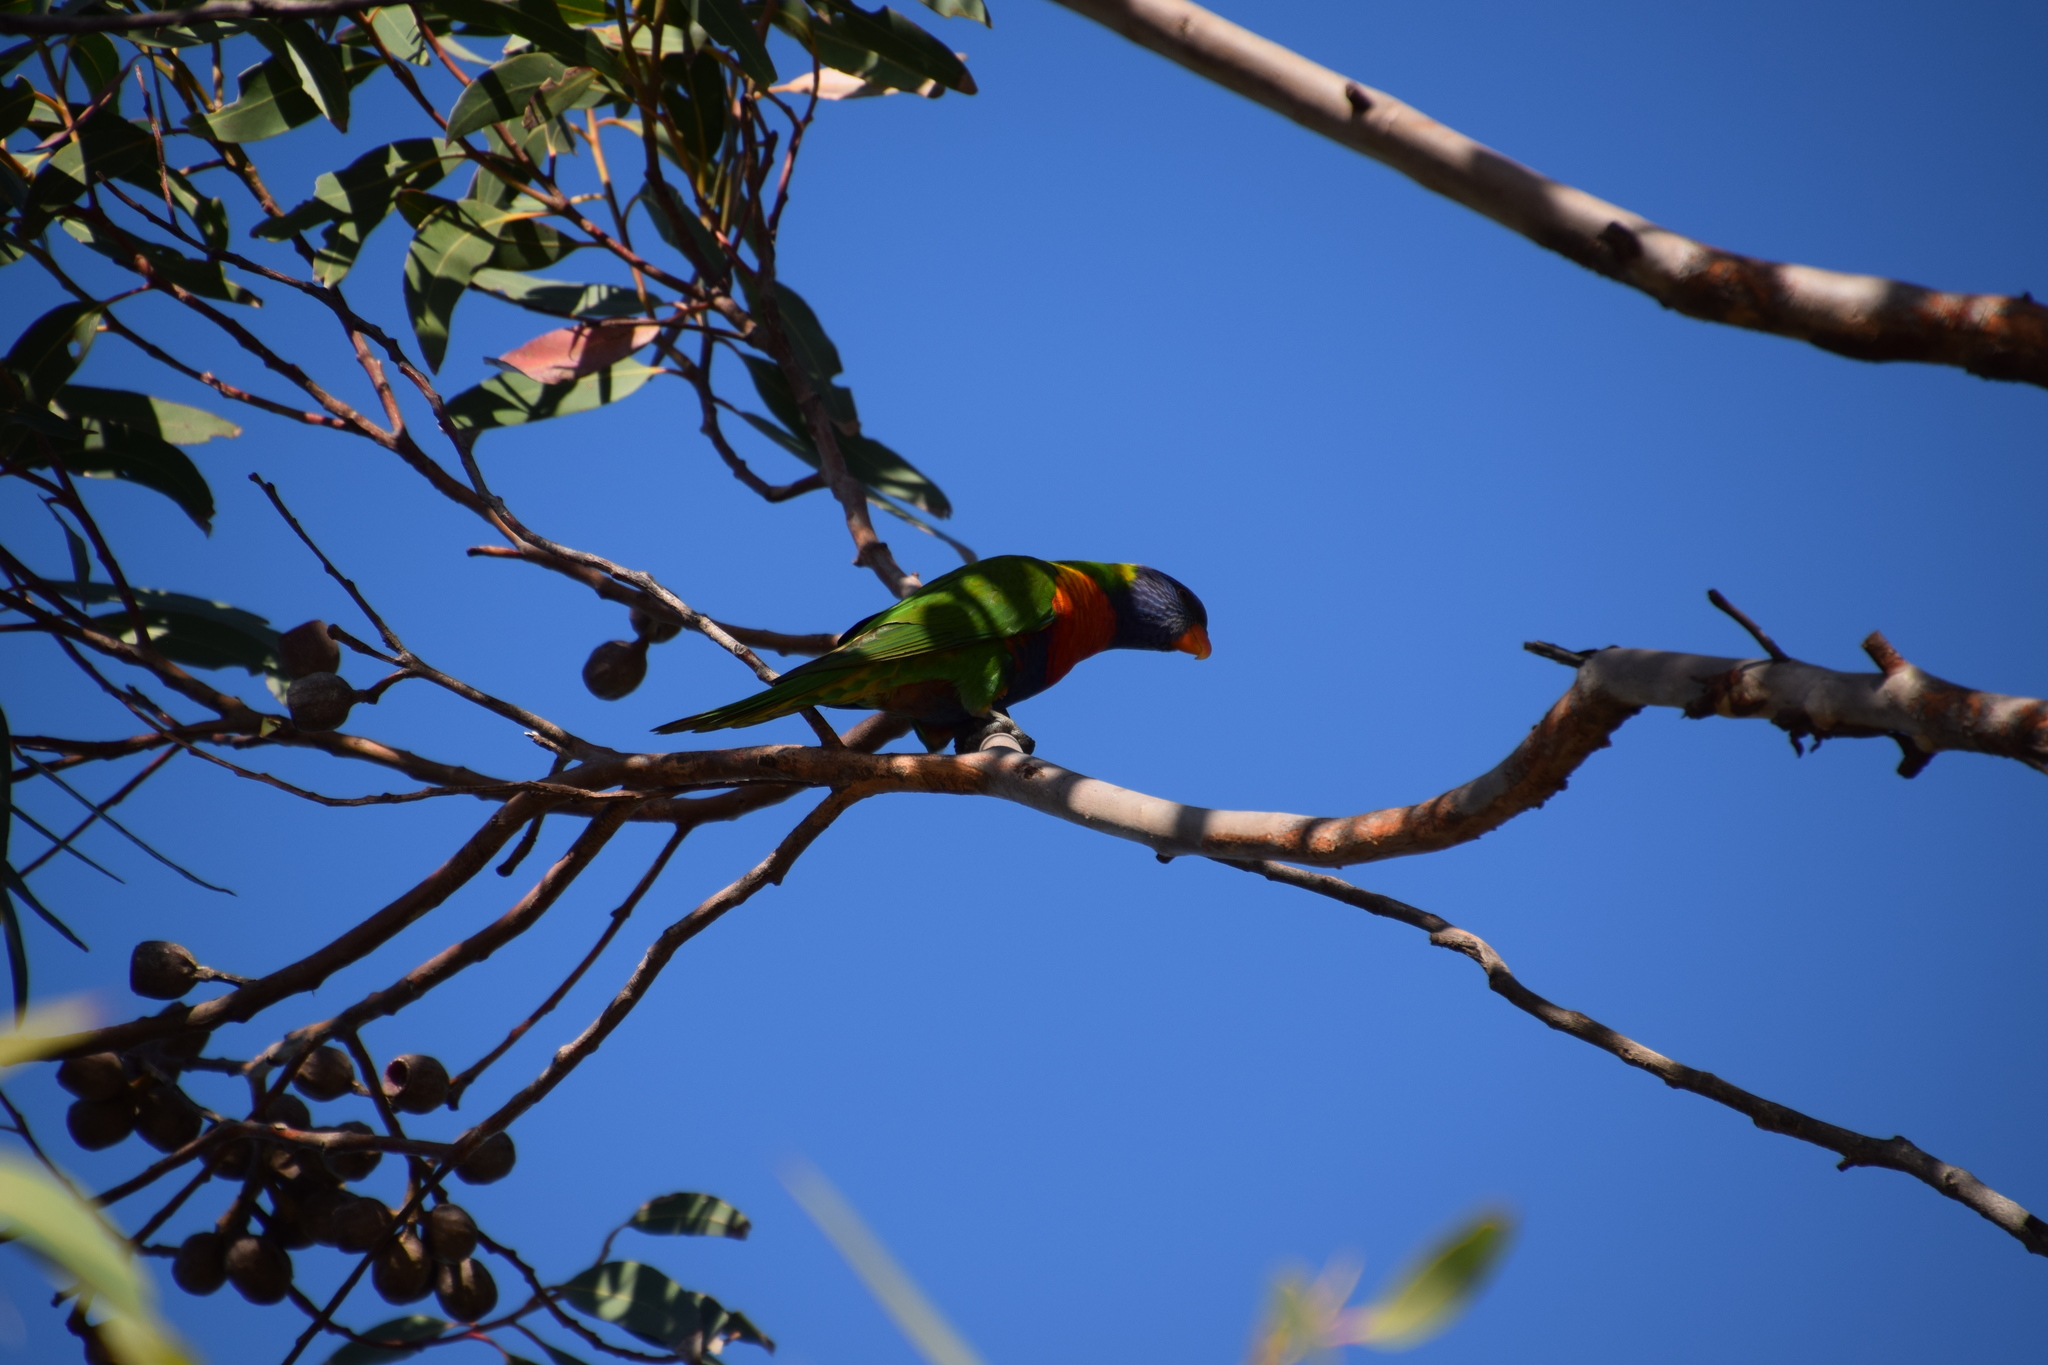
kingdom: Animalia
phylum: Chordata
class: Aves
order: Psittaciformes
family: Psittacidae
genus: Trichoglossus
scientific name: Trichoglossus haematodus
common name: Coconut lorikeet
